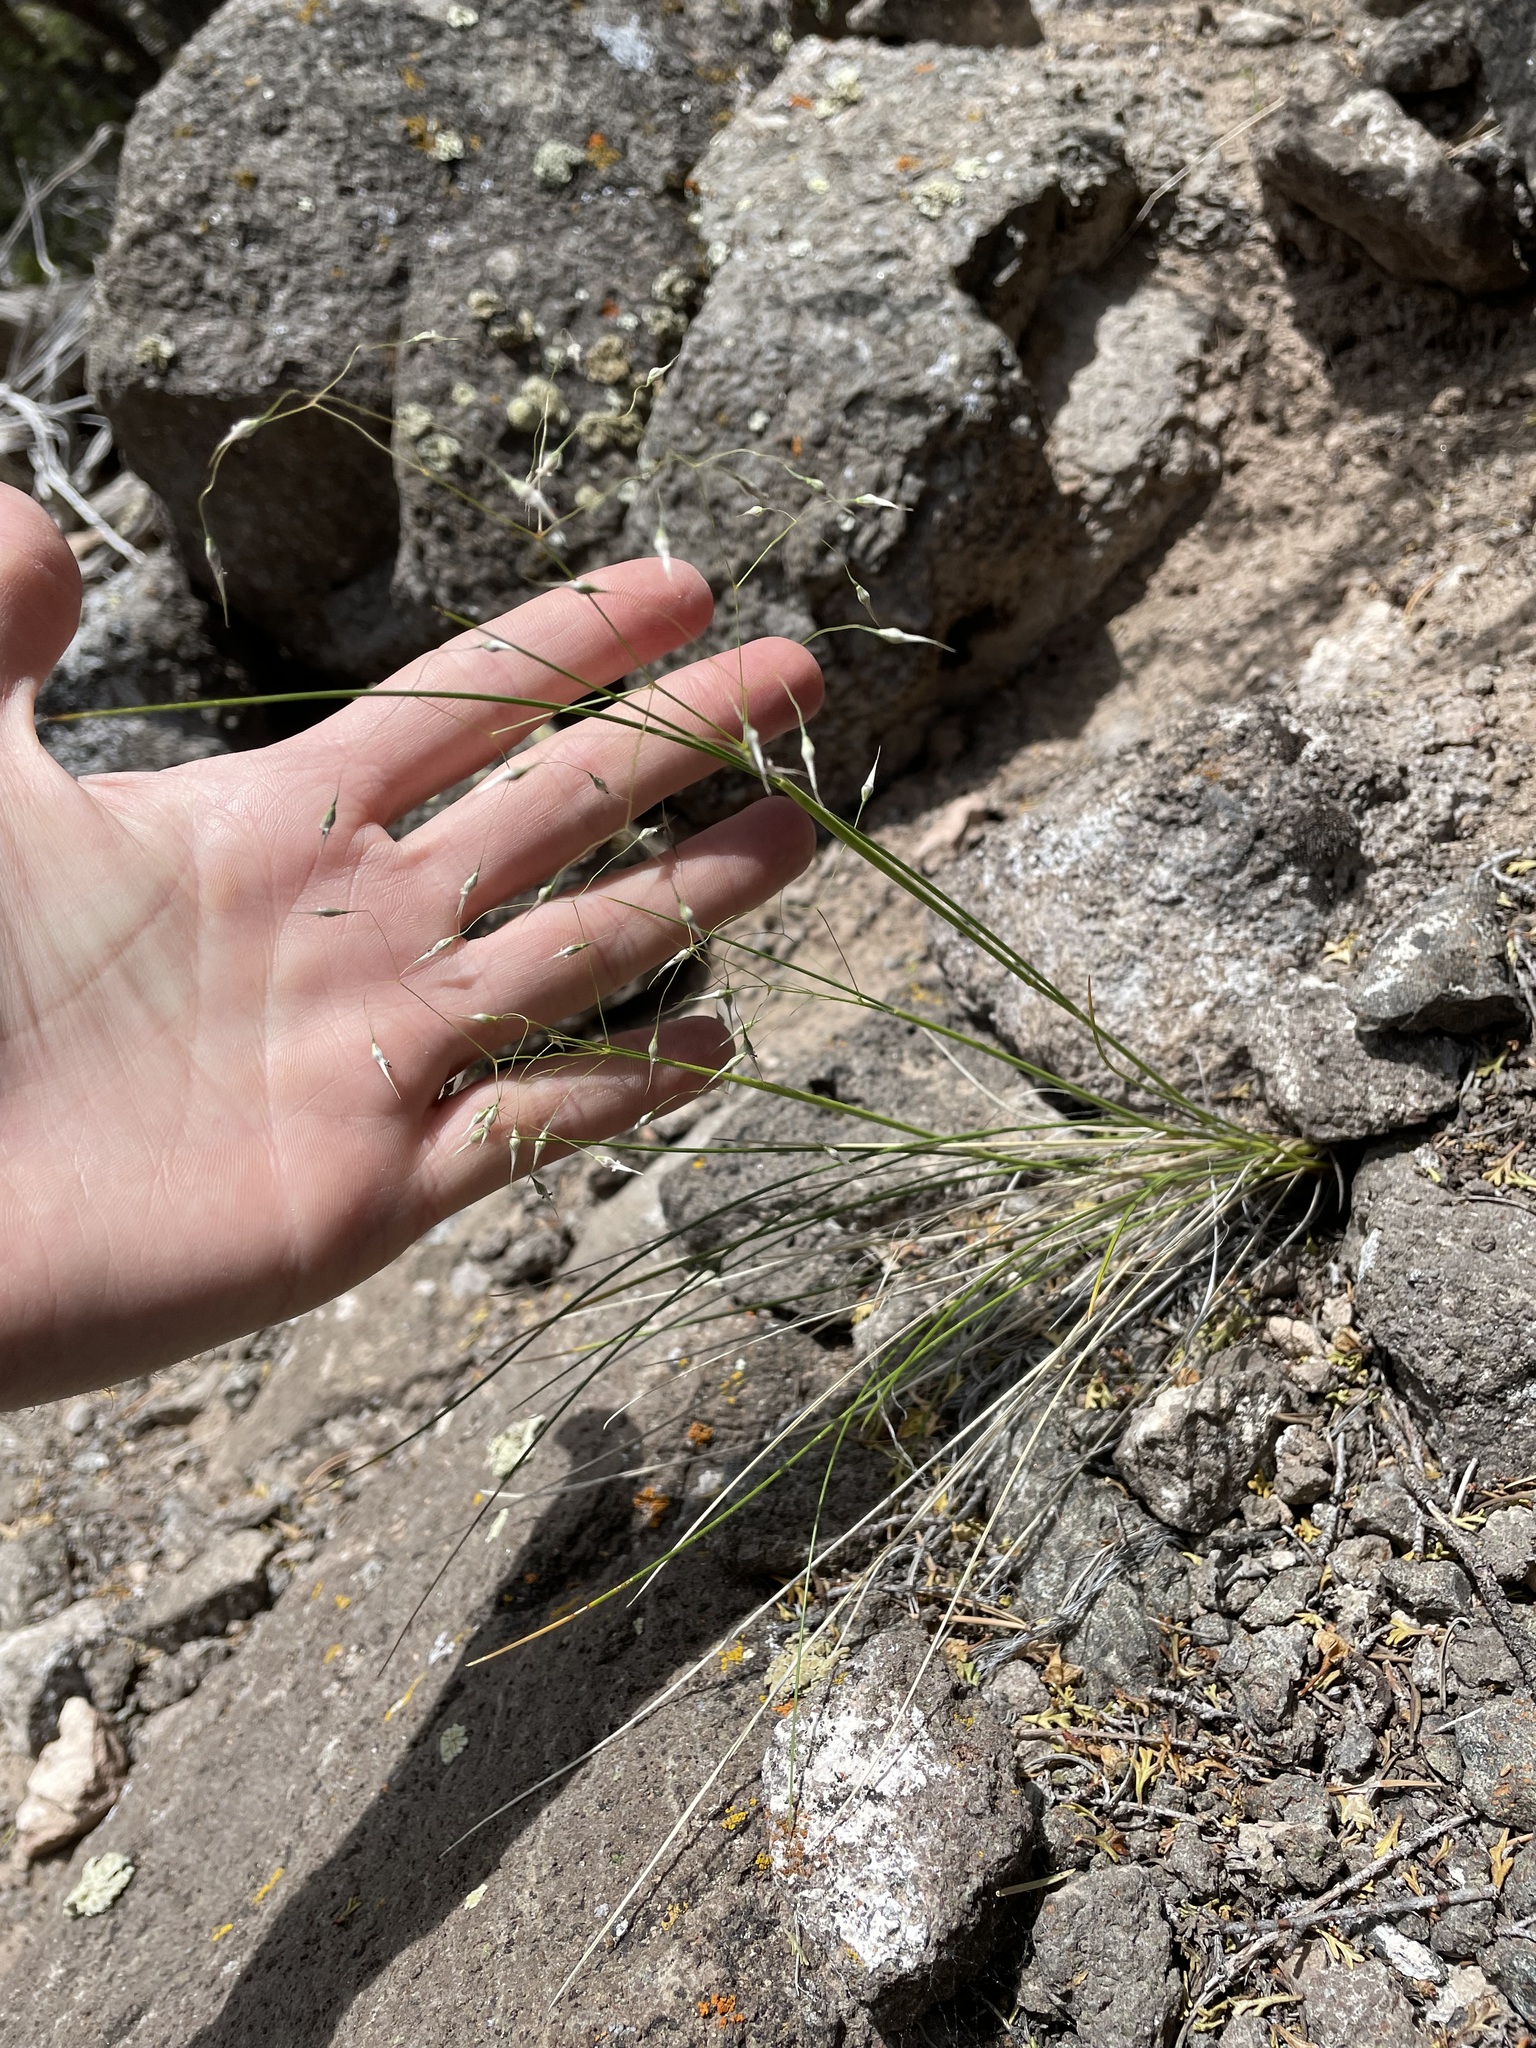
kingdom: Plantae
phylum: Tracheophyta
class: Liliopsida
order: Poales
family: Poaceae
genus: Eriocoma
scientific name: Eriocoma hymenoides
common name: Indian mountain ricegrass
